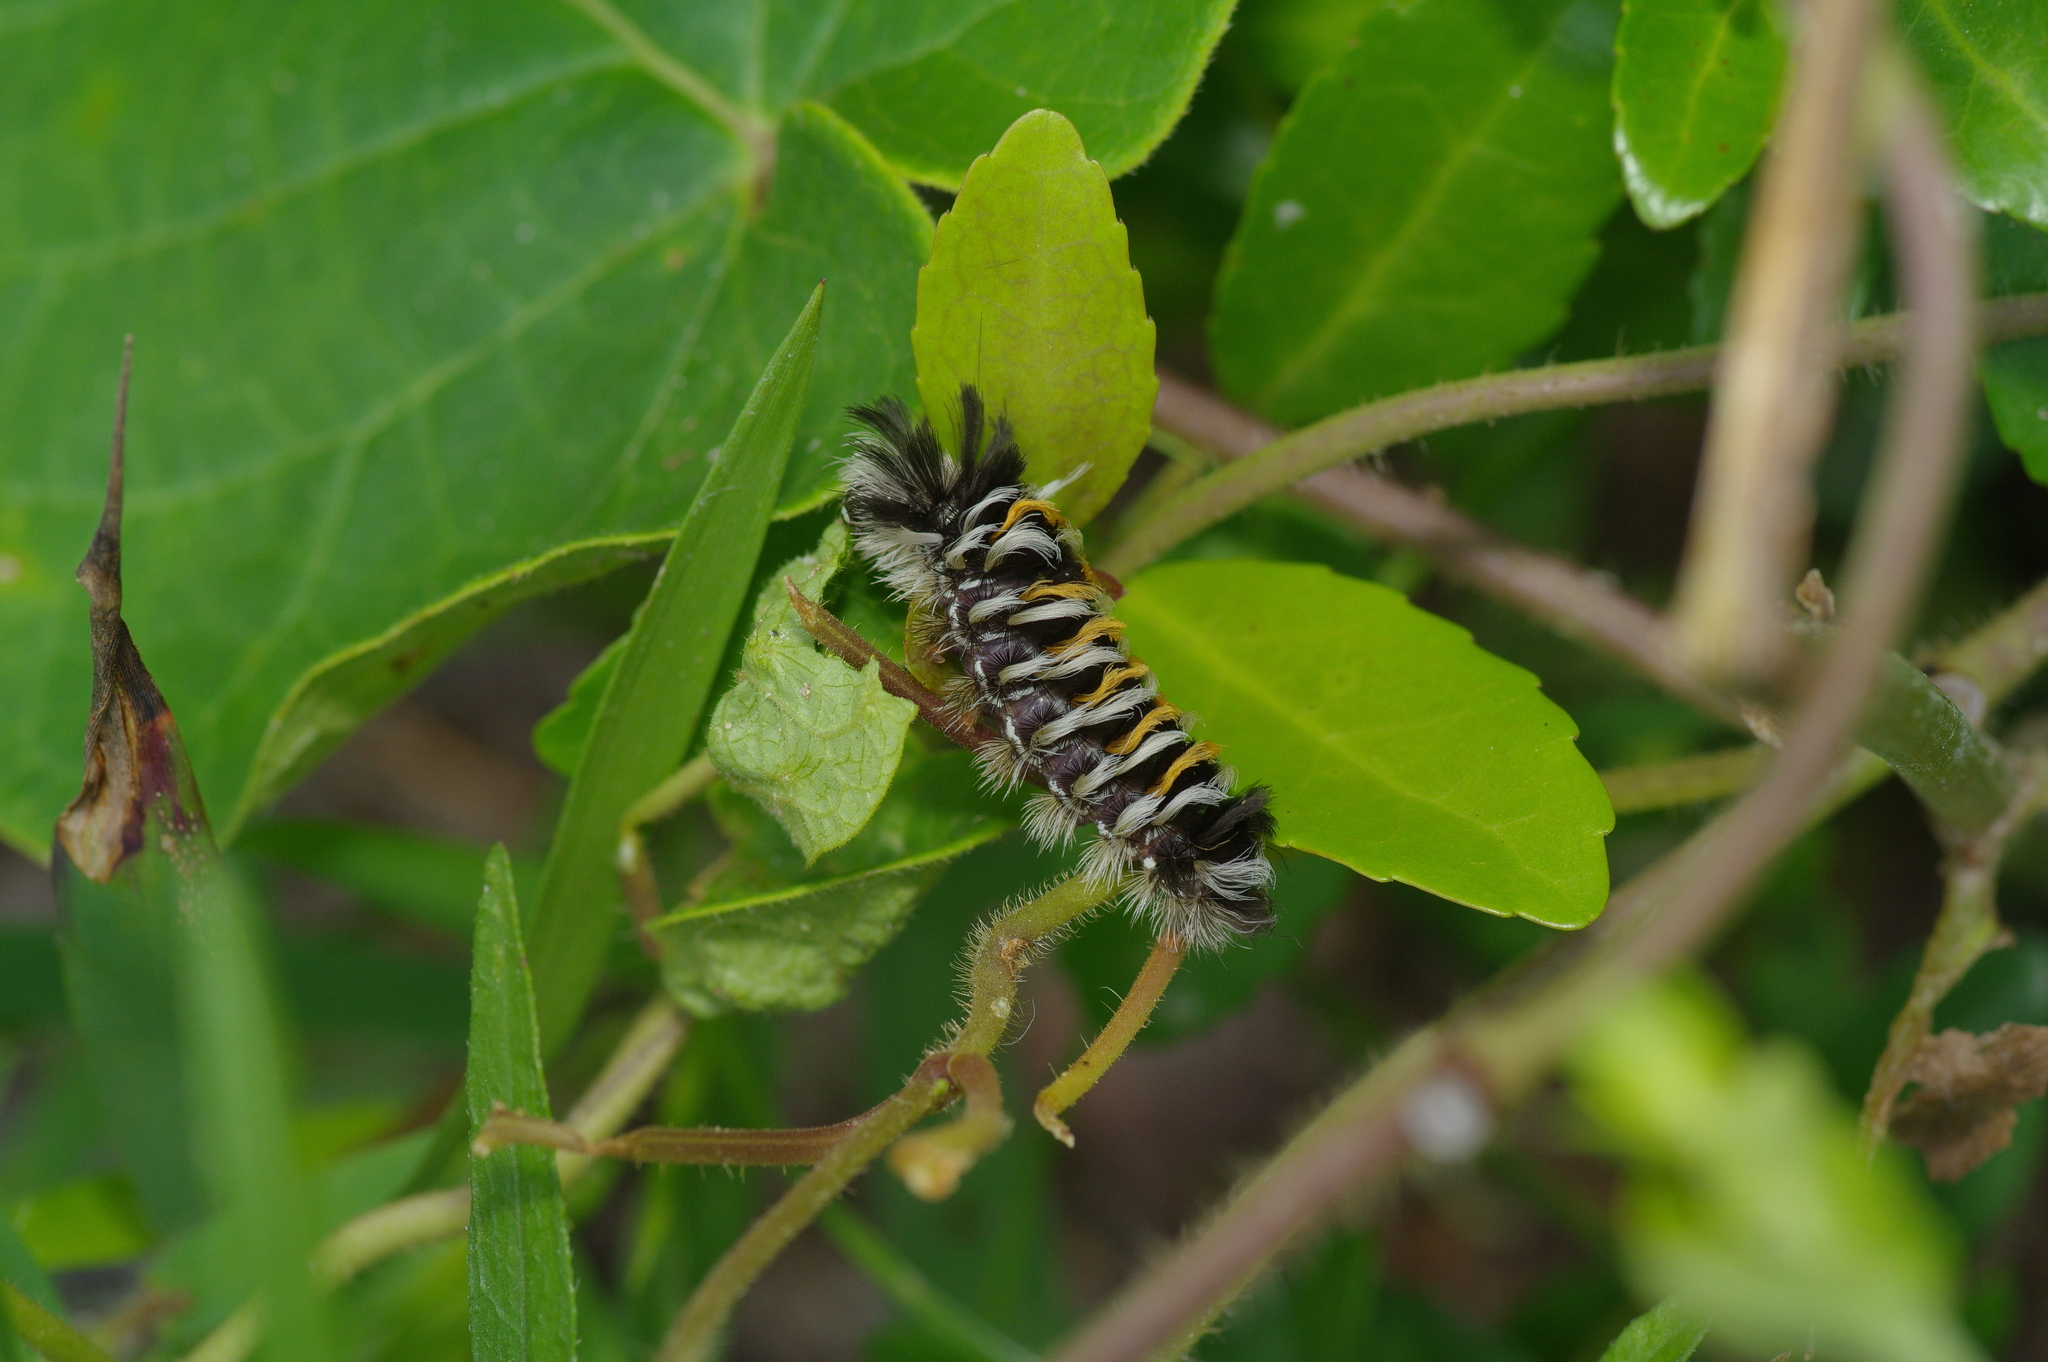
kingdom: Animalia
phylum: Arthropoda
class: Insecta
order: Lepidoptera
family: Erebidae
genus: Euchaetes
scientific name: Euchaetes bolteri
